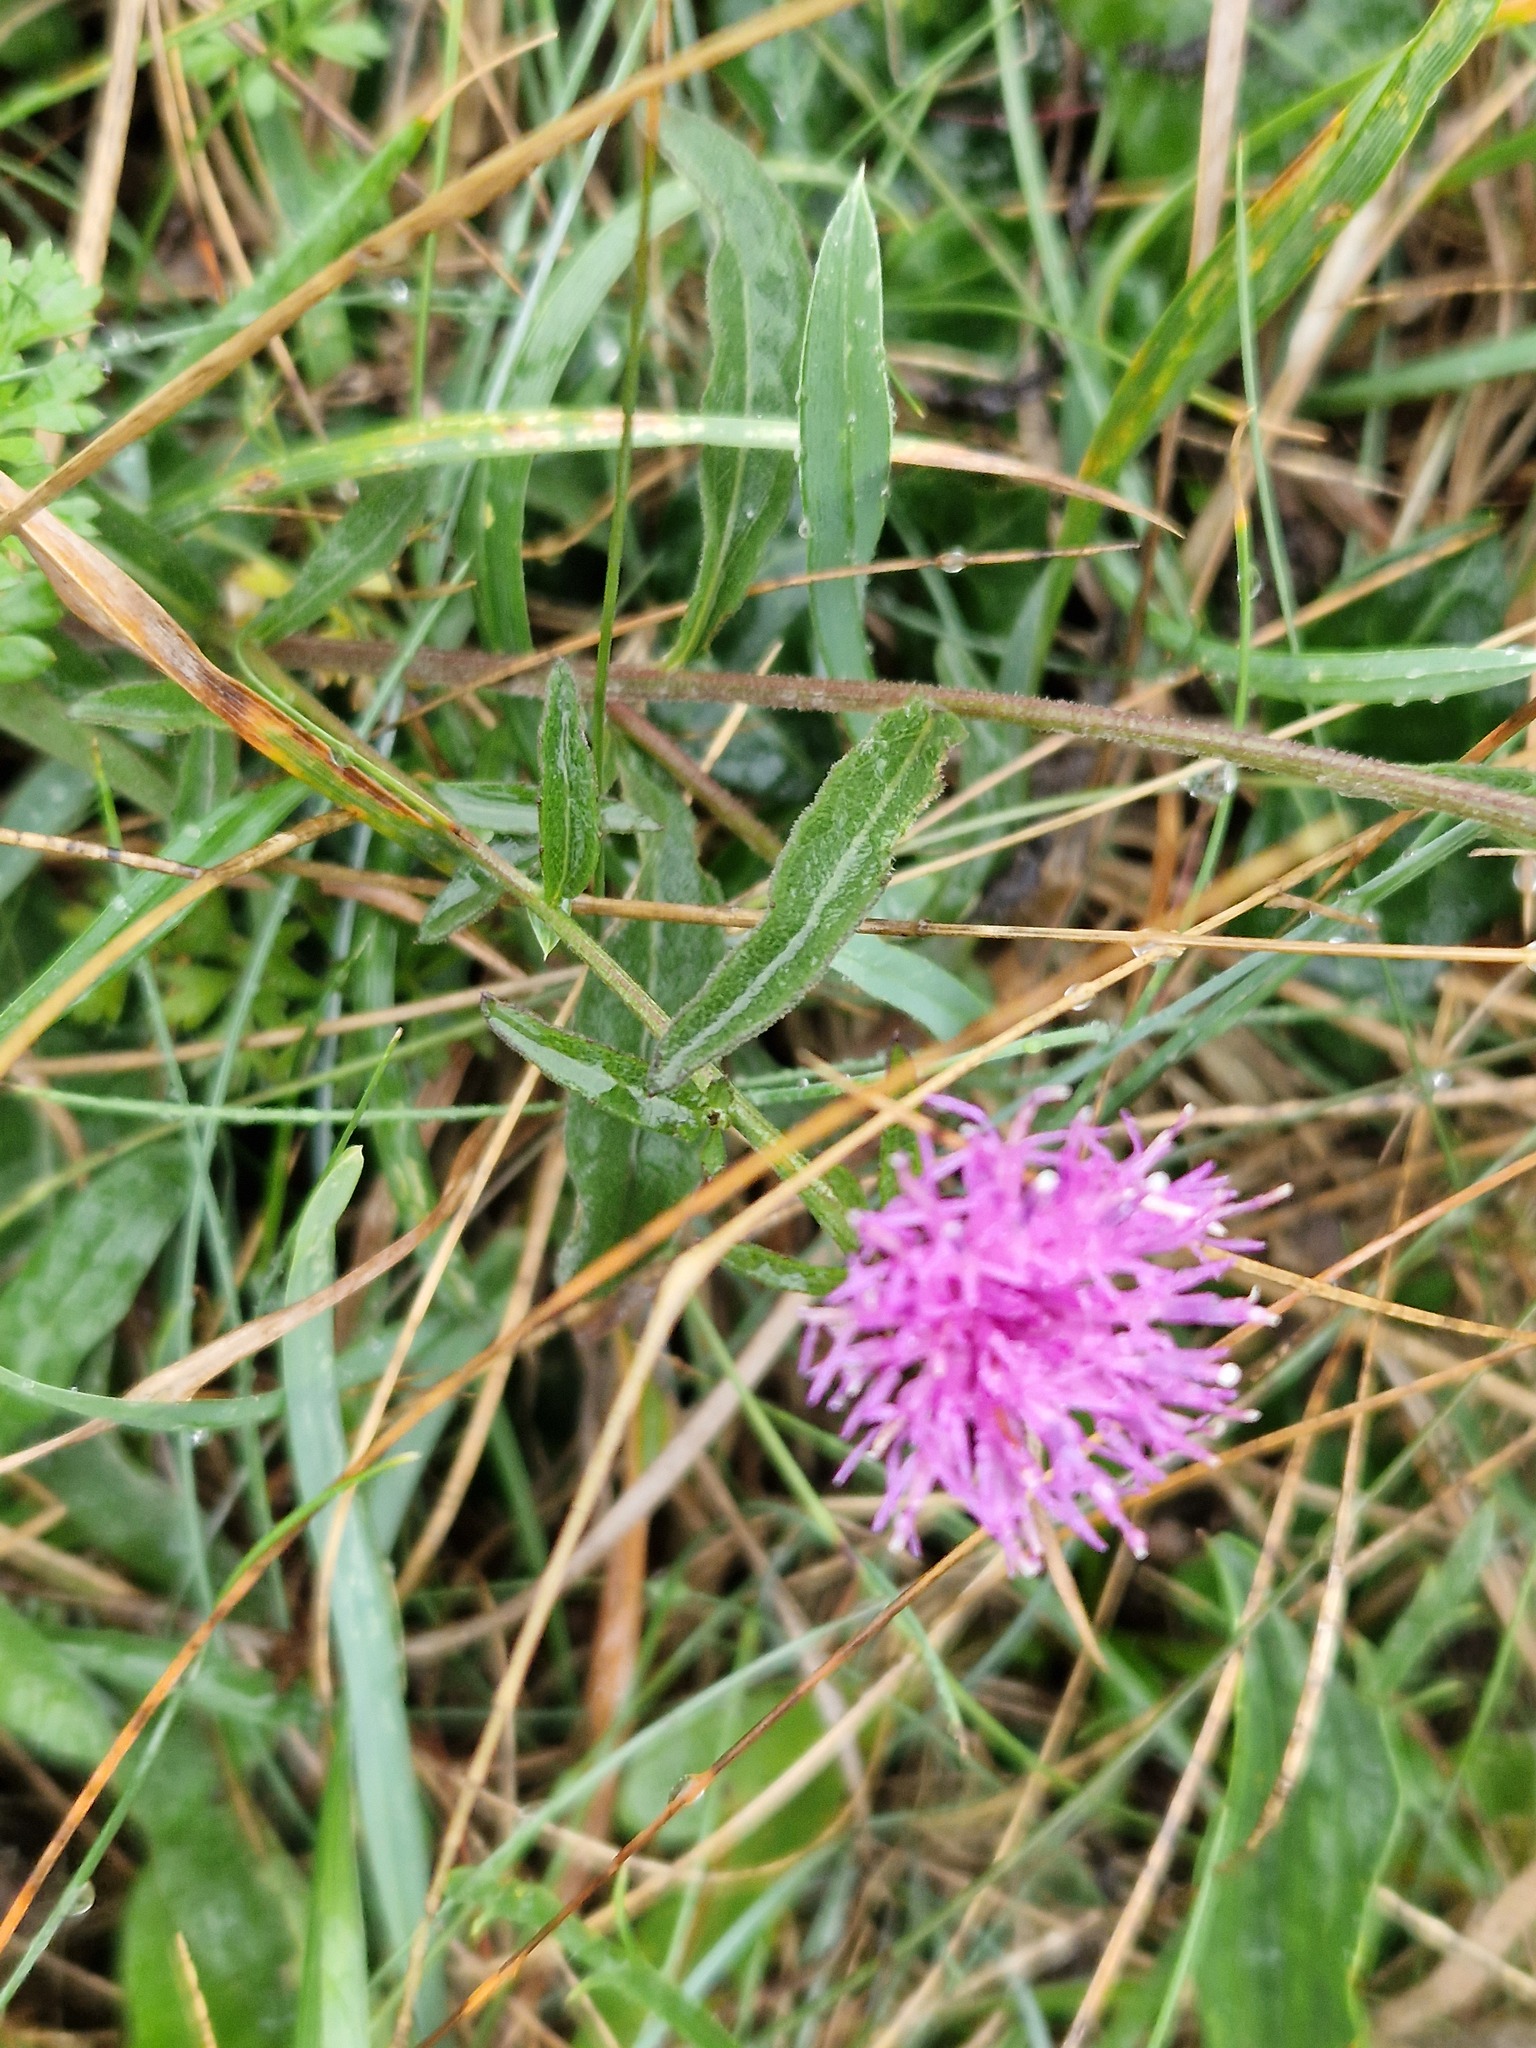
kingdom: Plantae
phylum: Tracheophyta
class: Magnoliopsida
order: Asterales
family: Asteraceae
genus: Centaurea
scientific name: Centaurea decipiens
